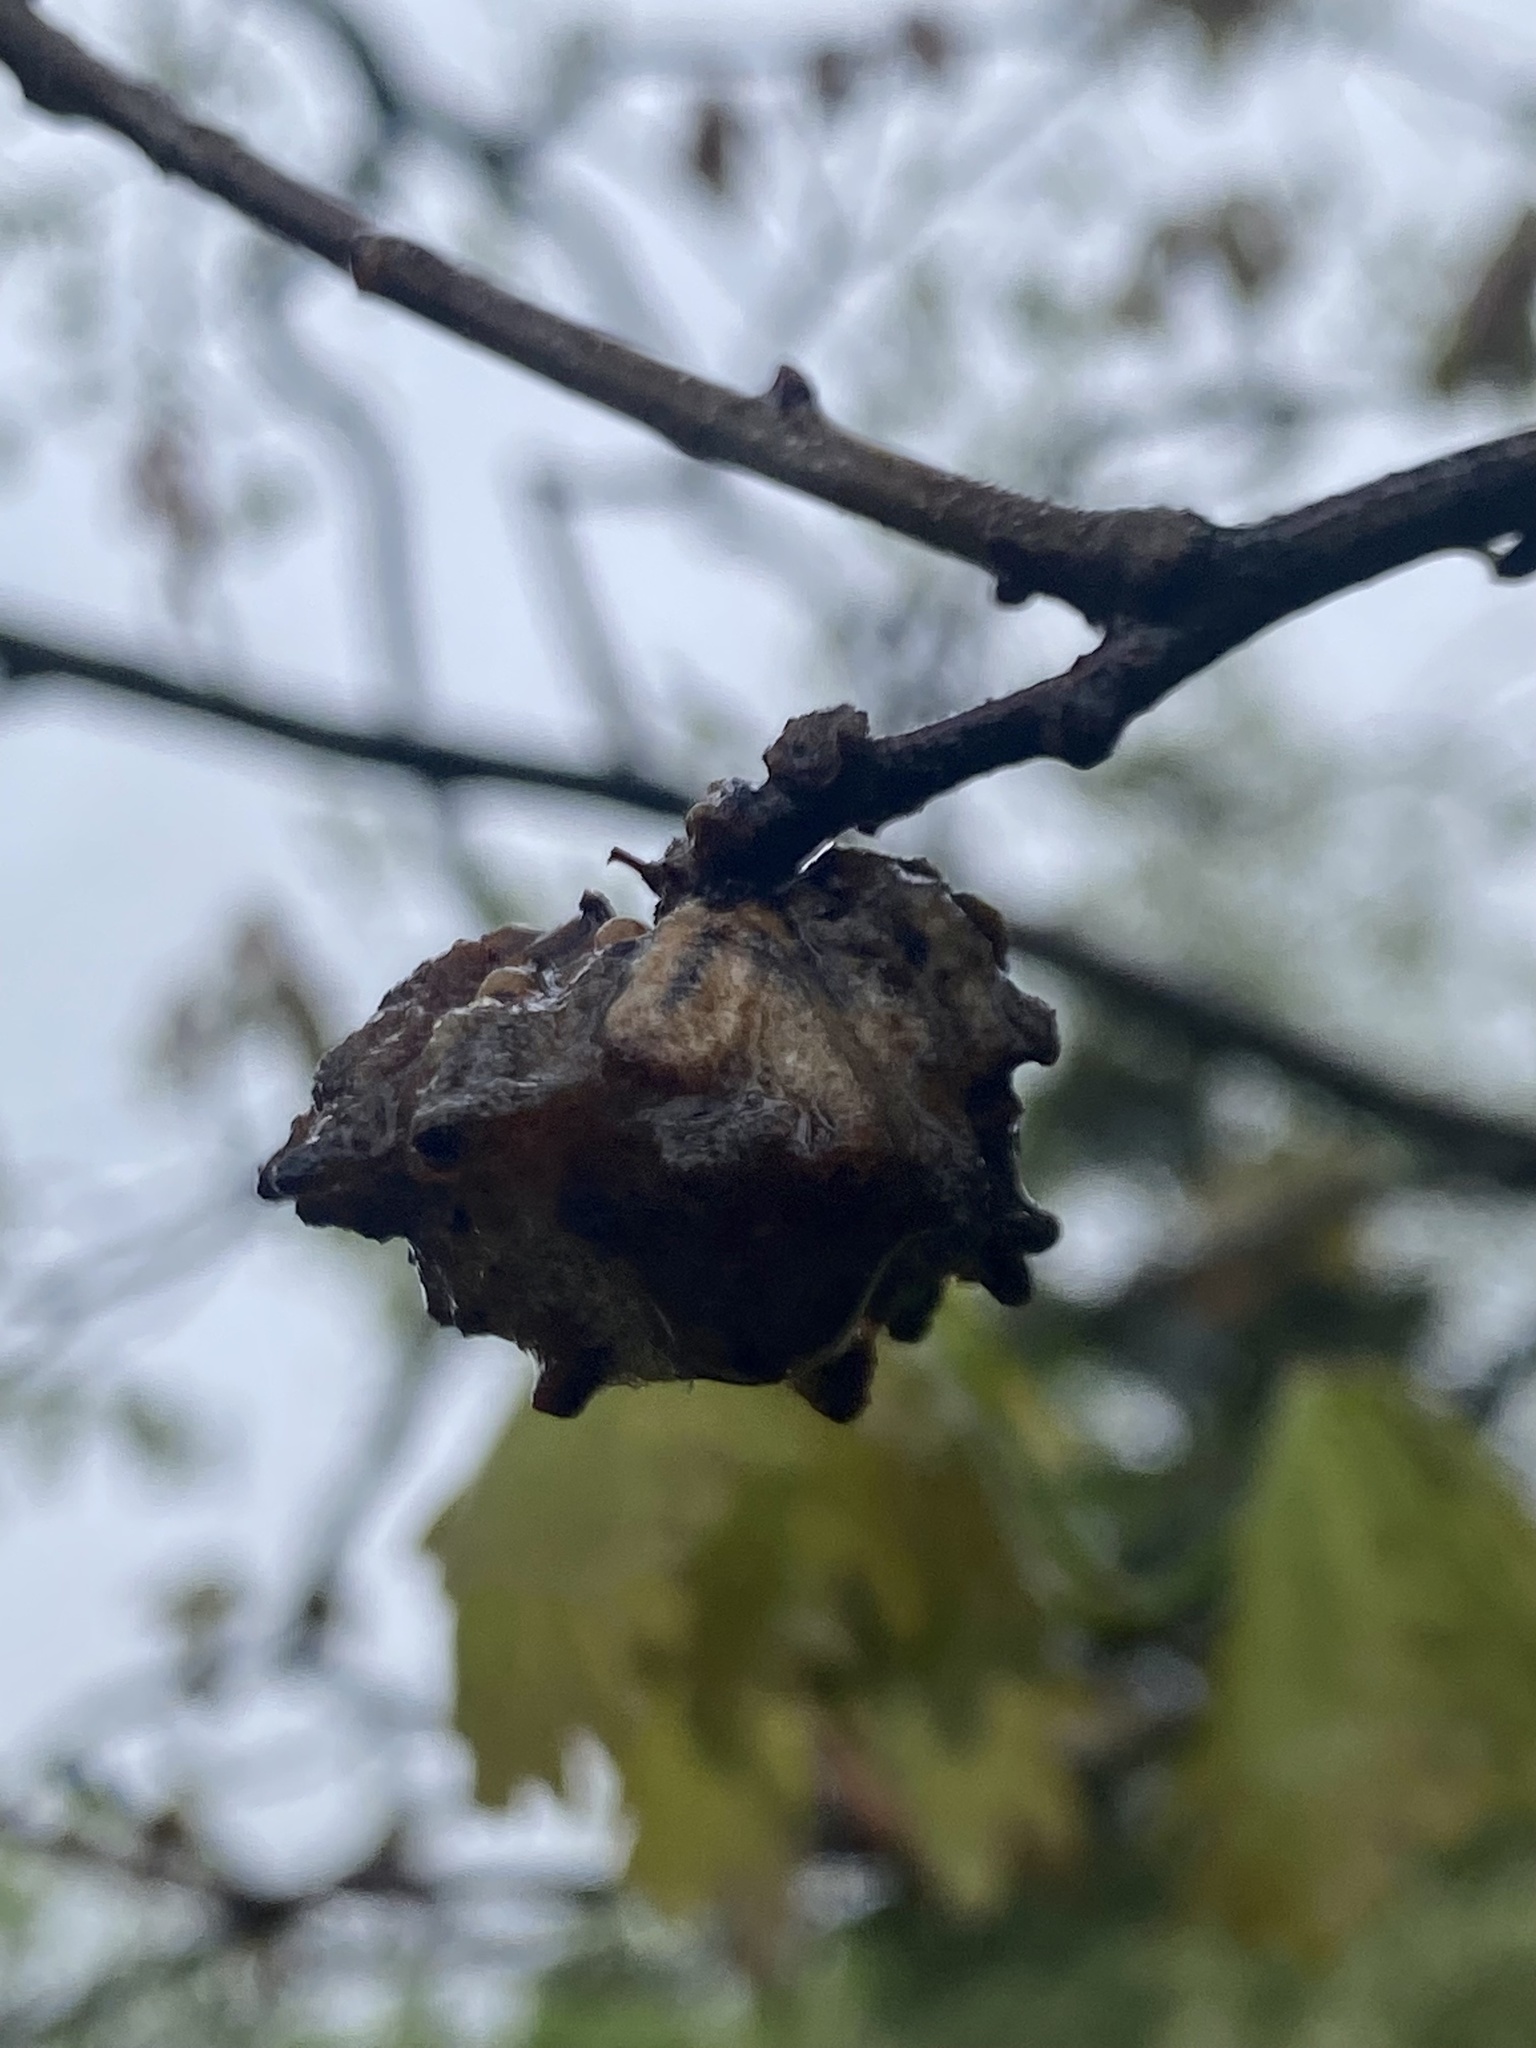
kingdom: Animalia
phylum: Arthropoda
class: Insecta
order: Hymenoptera
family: Cynipidae
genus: Callirhytis
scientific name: Callirhytis
